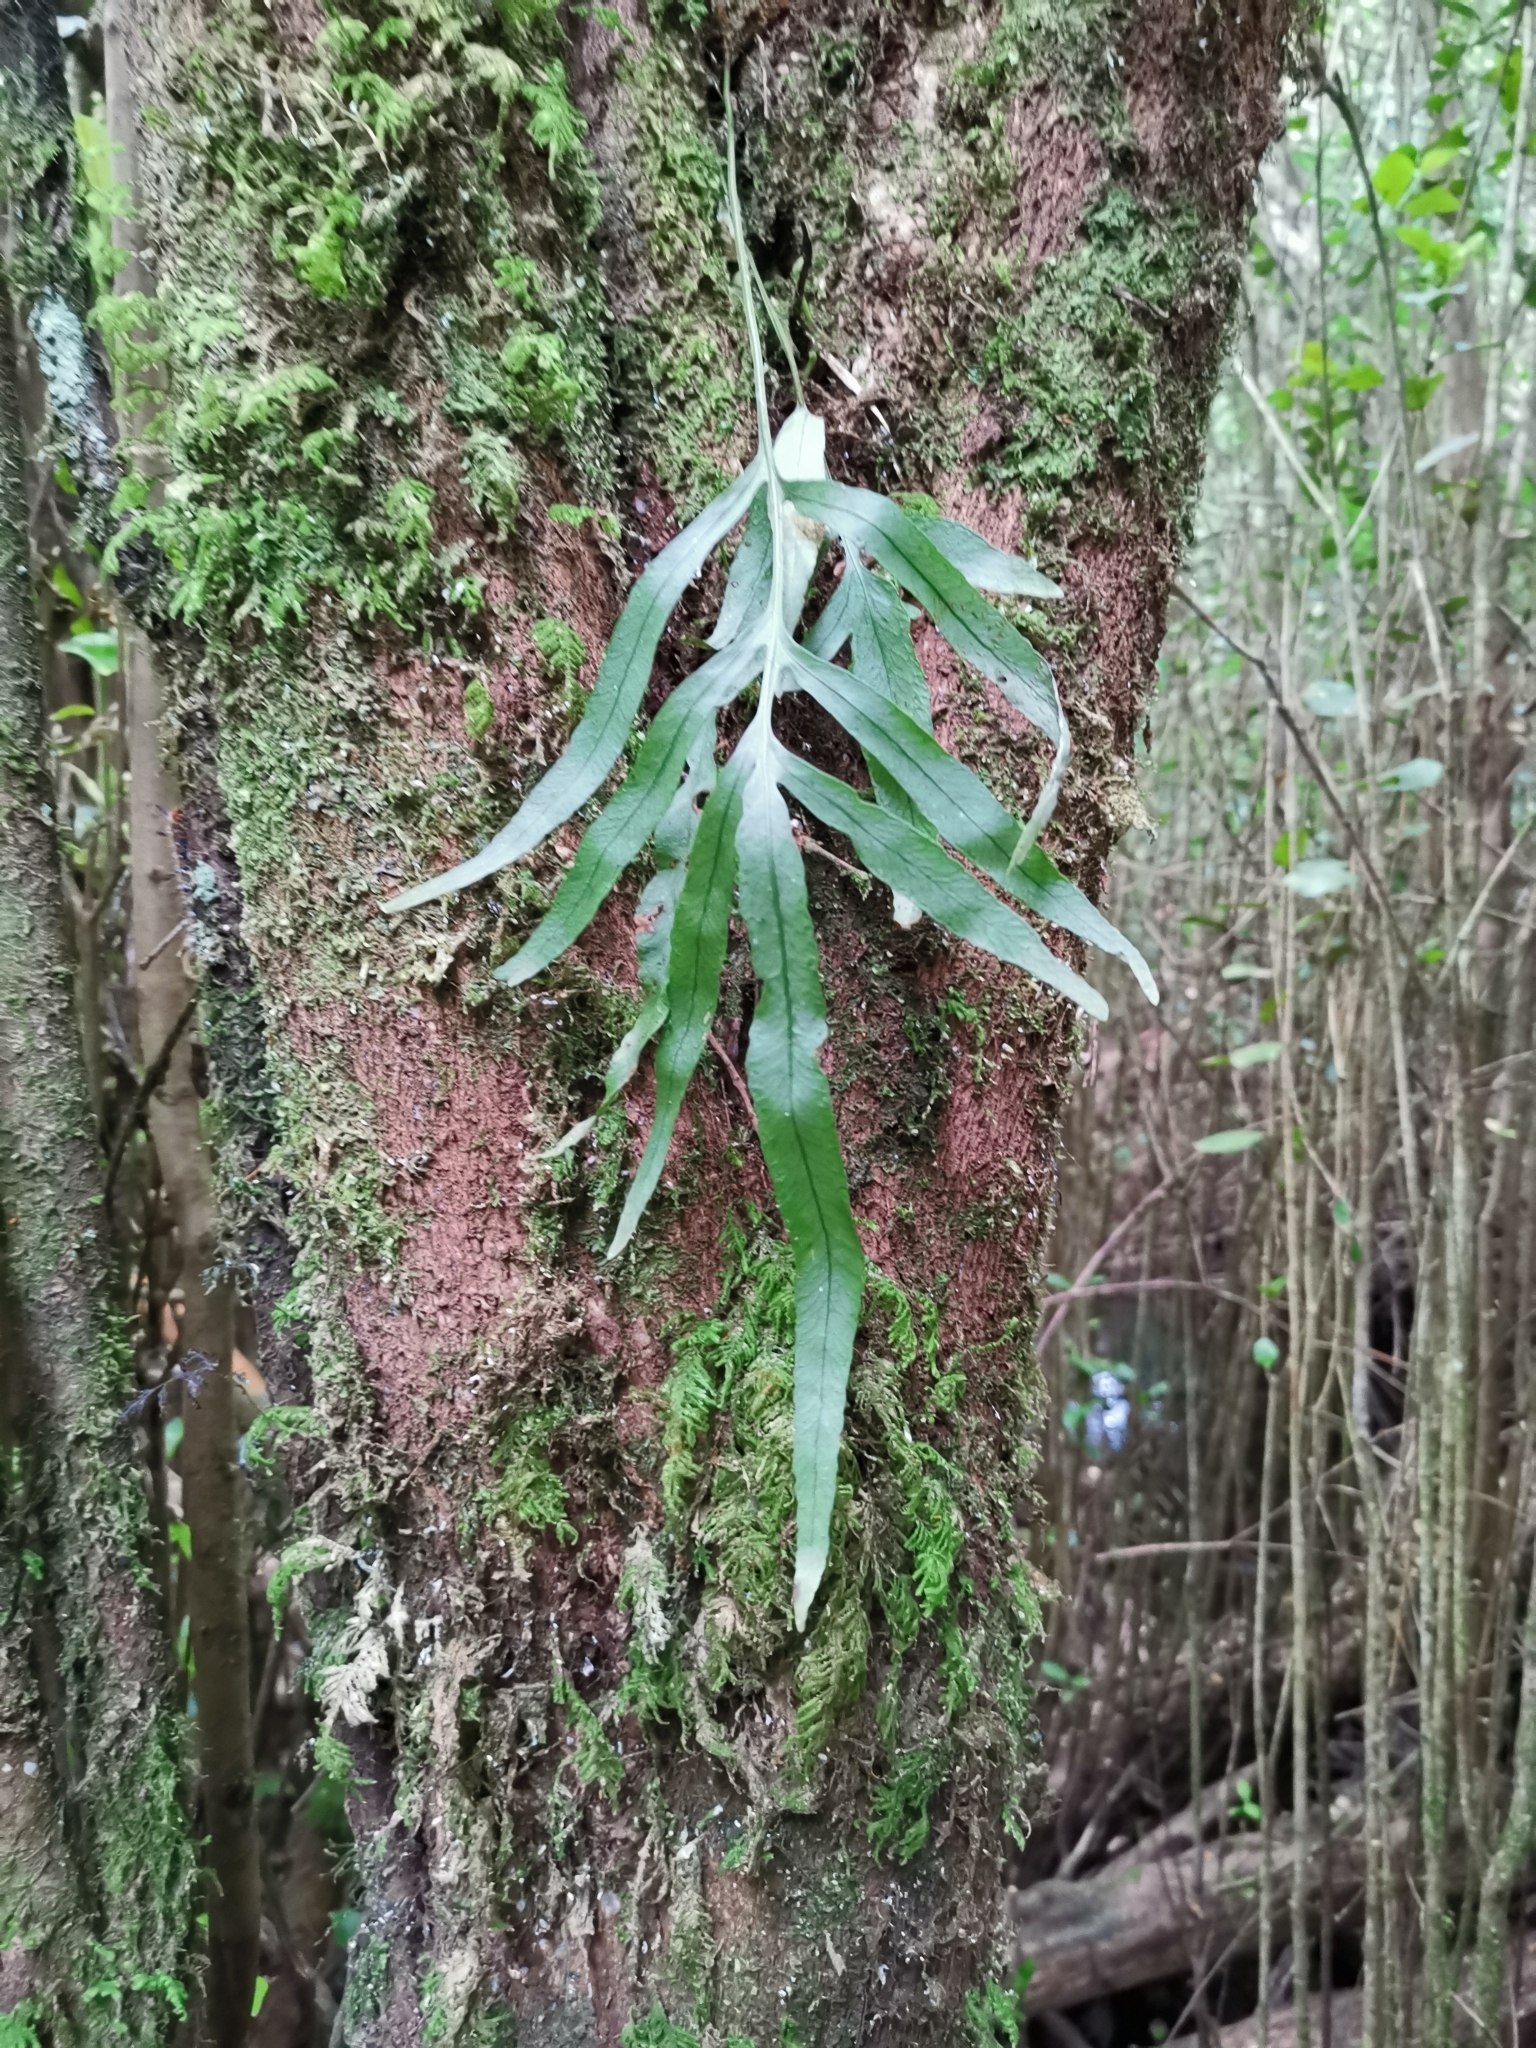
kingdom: Plantae
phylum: Tracheophyta
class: Polypodiopsida
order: Polypodiales
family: Polypodiaceae
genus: Synammia
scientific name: Synammia feuillei
